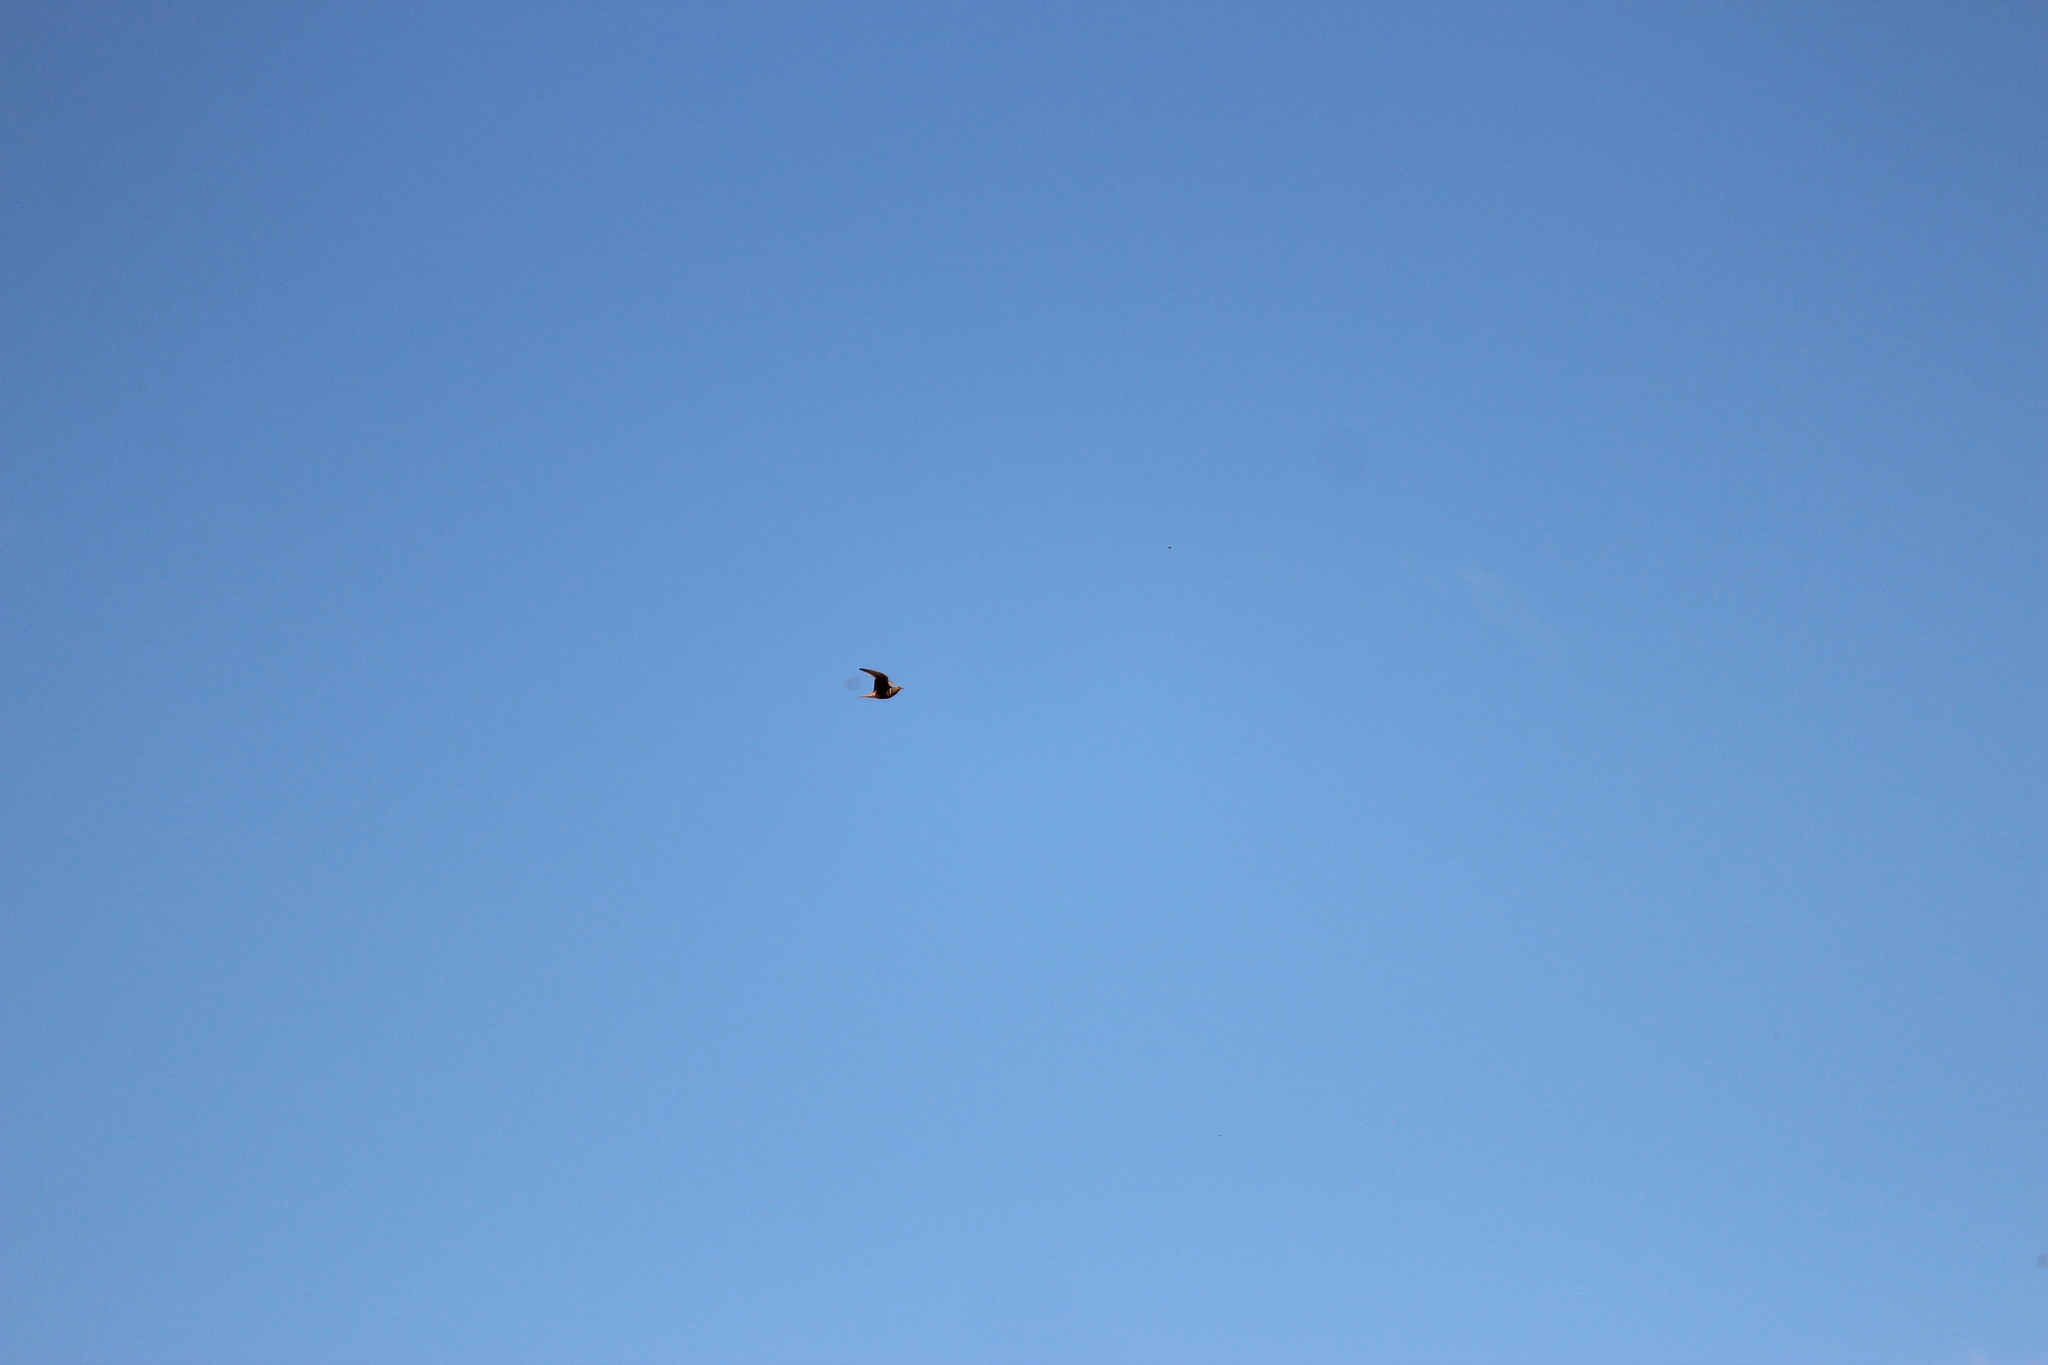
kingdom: Animalia
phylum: Chordata
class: Aves
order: Pteroclidiformes
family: Pteroclididae
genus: Pterocles
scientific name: Pterocles namaqua
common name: Namaqua sandgrouse
